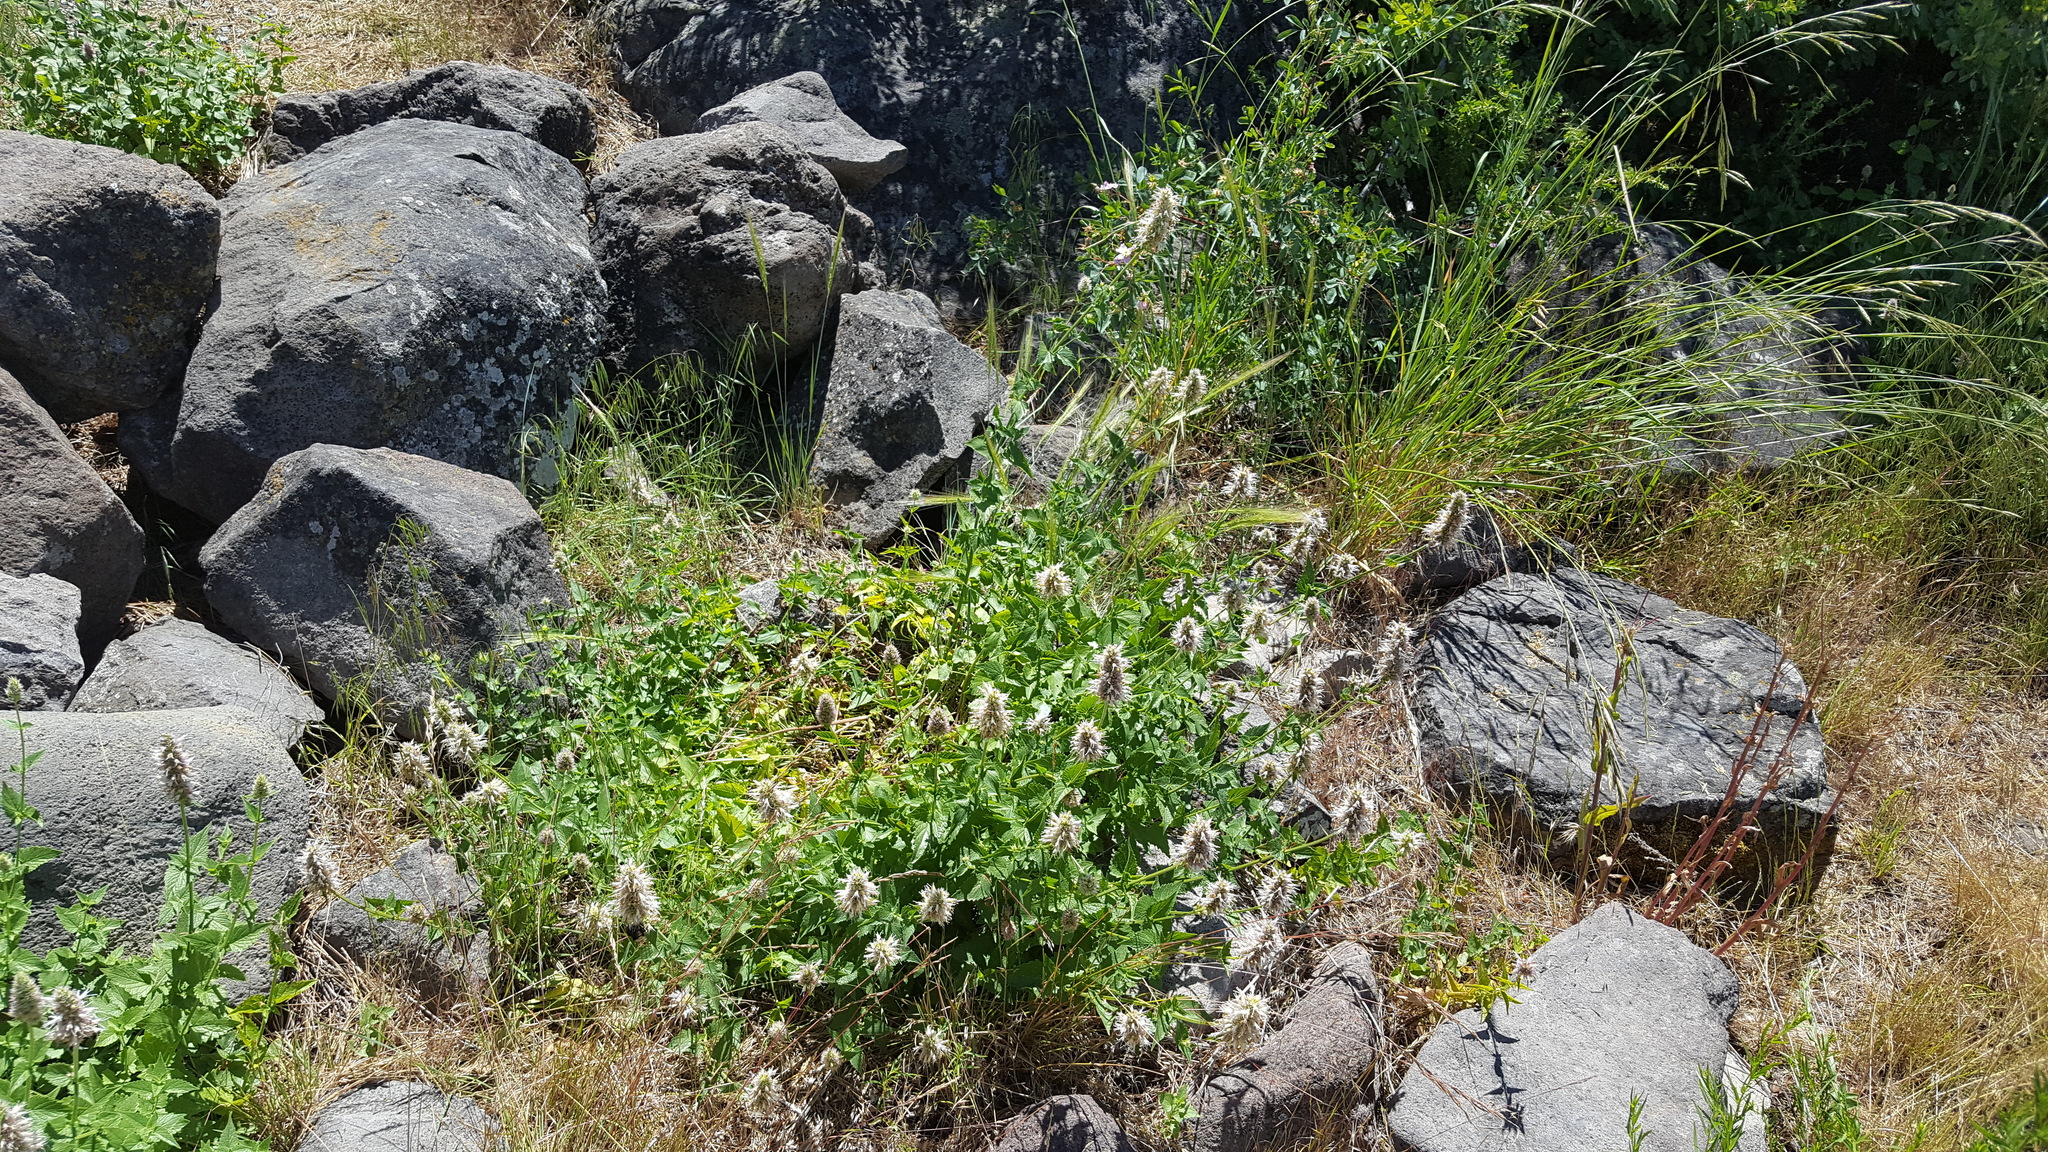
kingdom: Plantae
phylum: Tracheophyta
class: Magnoliopsida
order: Lamiales
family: Lamiaceae
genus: Agastache
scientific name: Agastache urticifolia
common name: Horsemint giant hyssop
